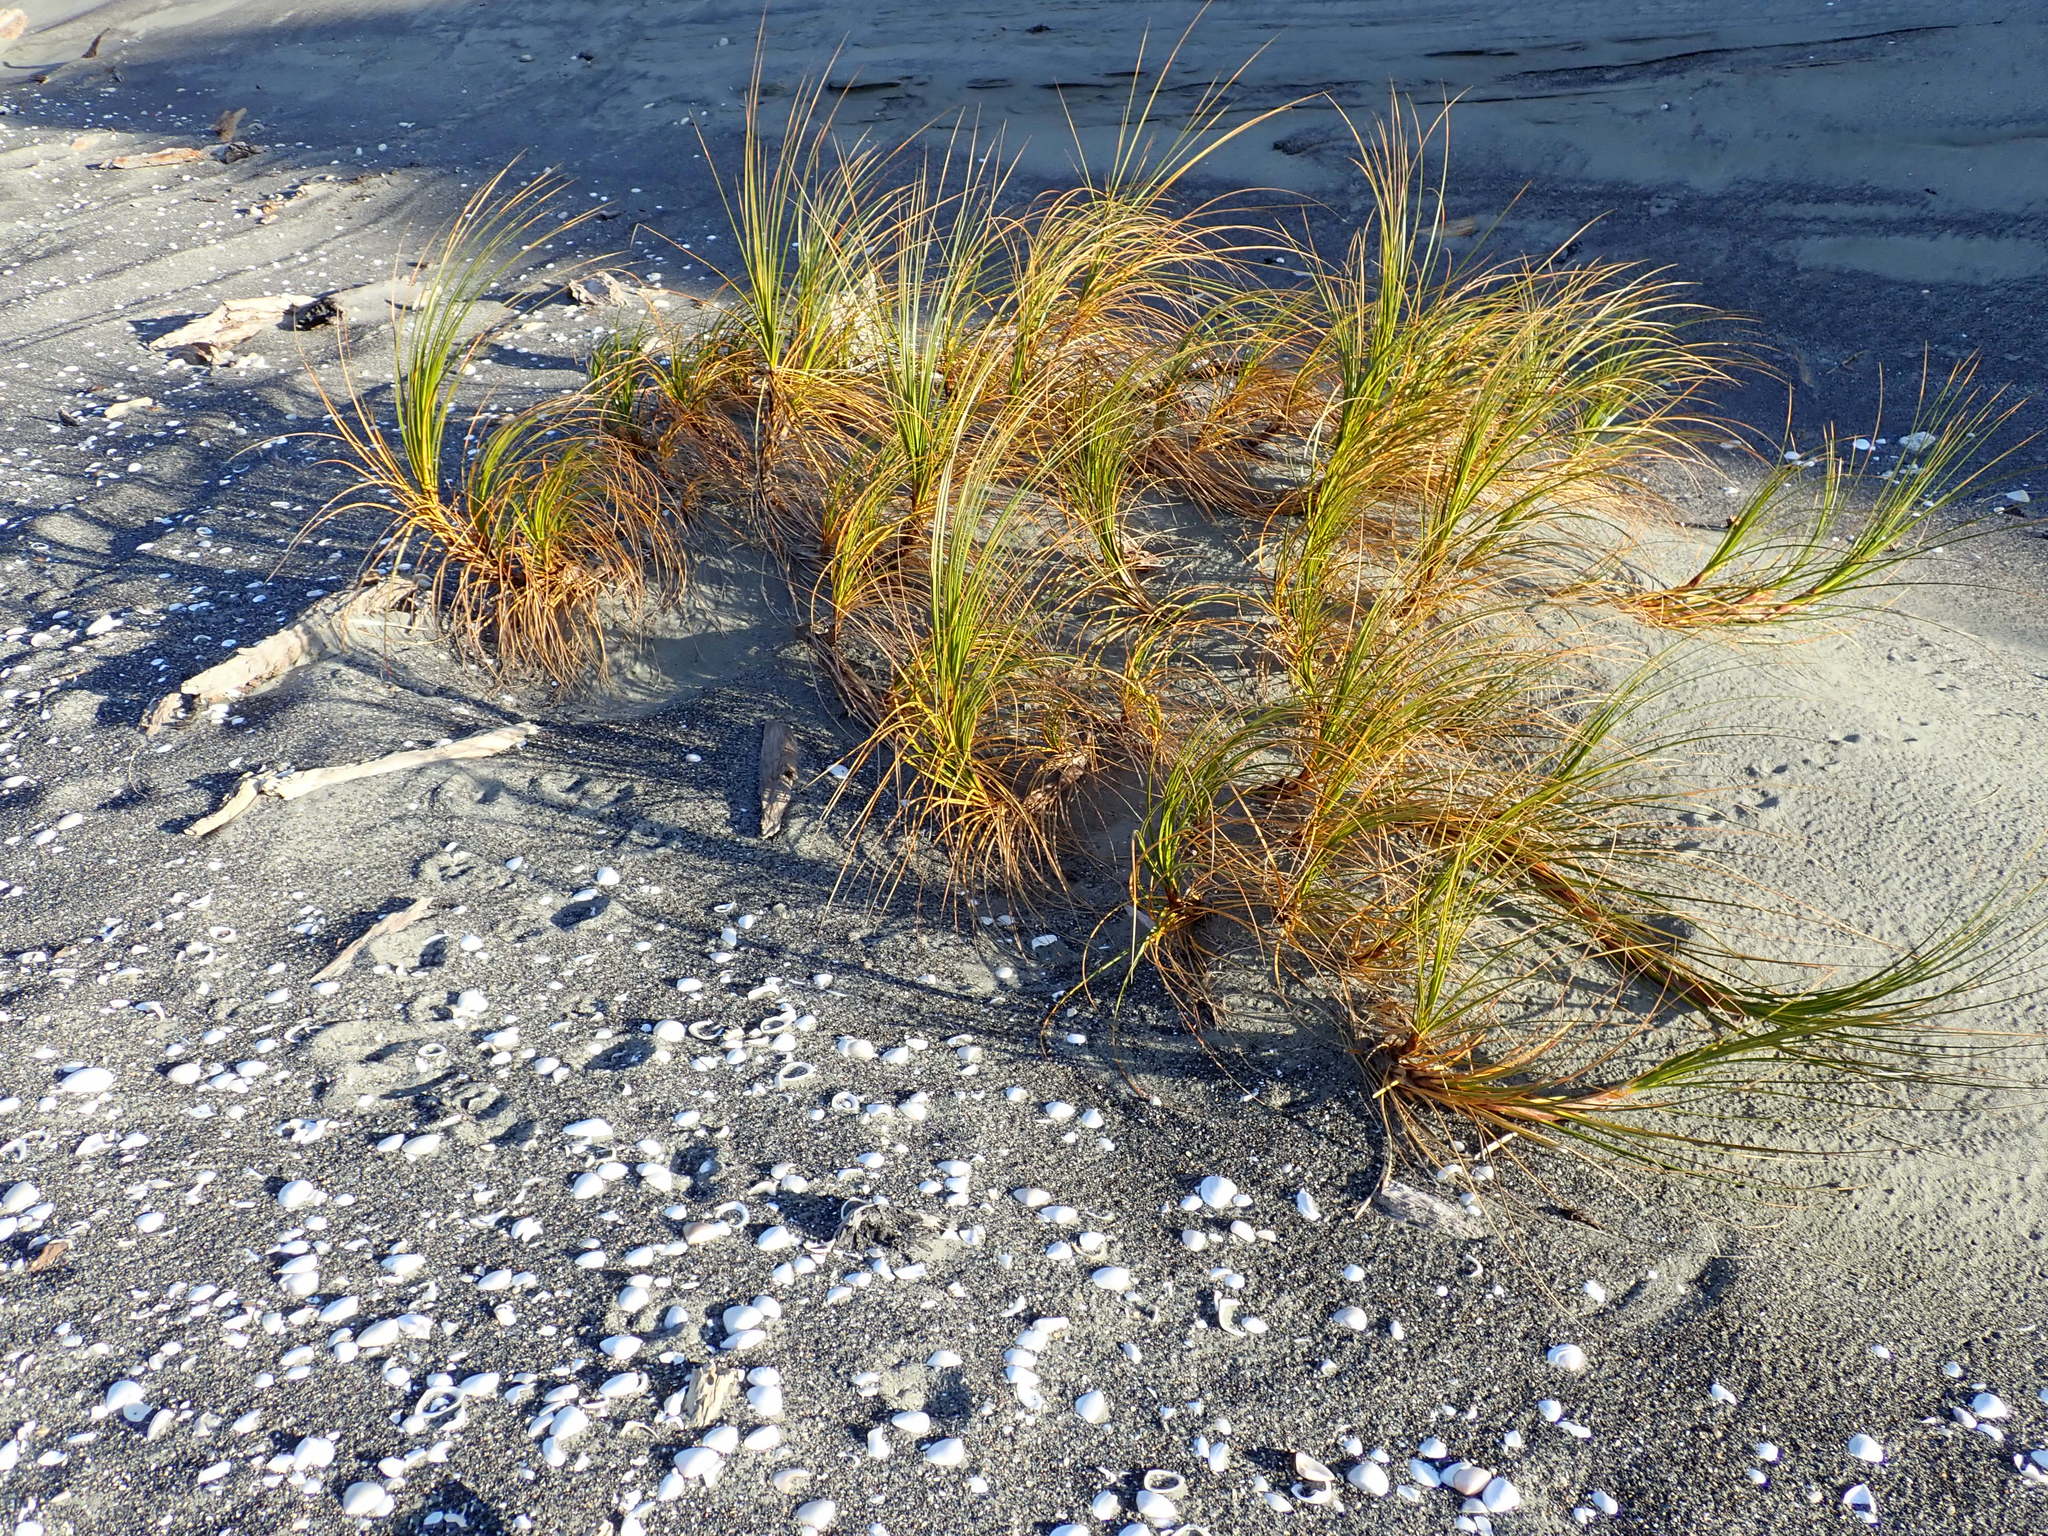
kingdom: Plantae
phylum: Tracheophyta
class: Liliopsida
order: Poales
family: Cyperaceae
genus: Ficinia
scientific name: Ficinia spiralis
